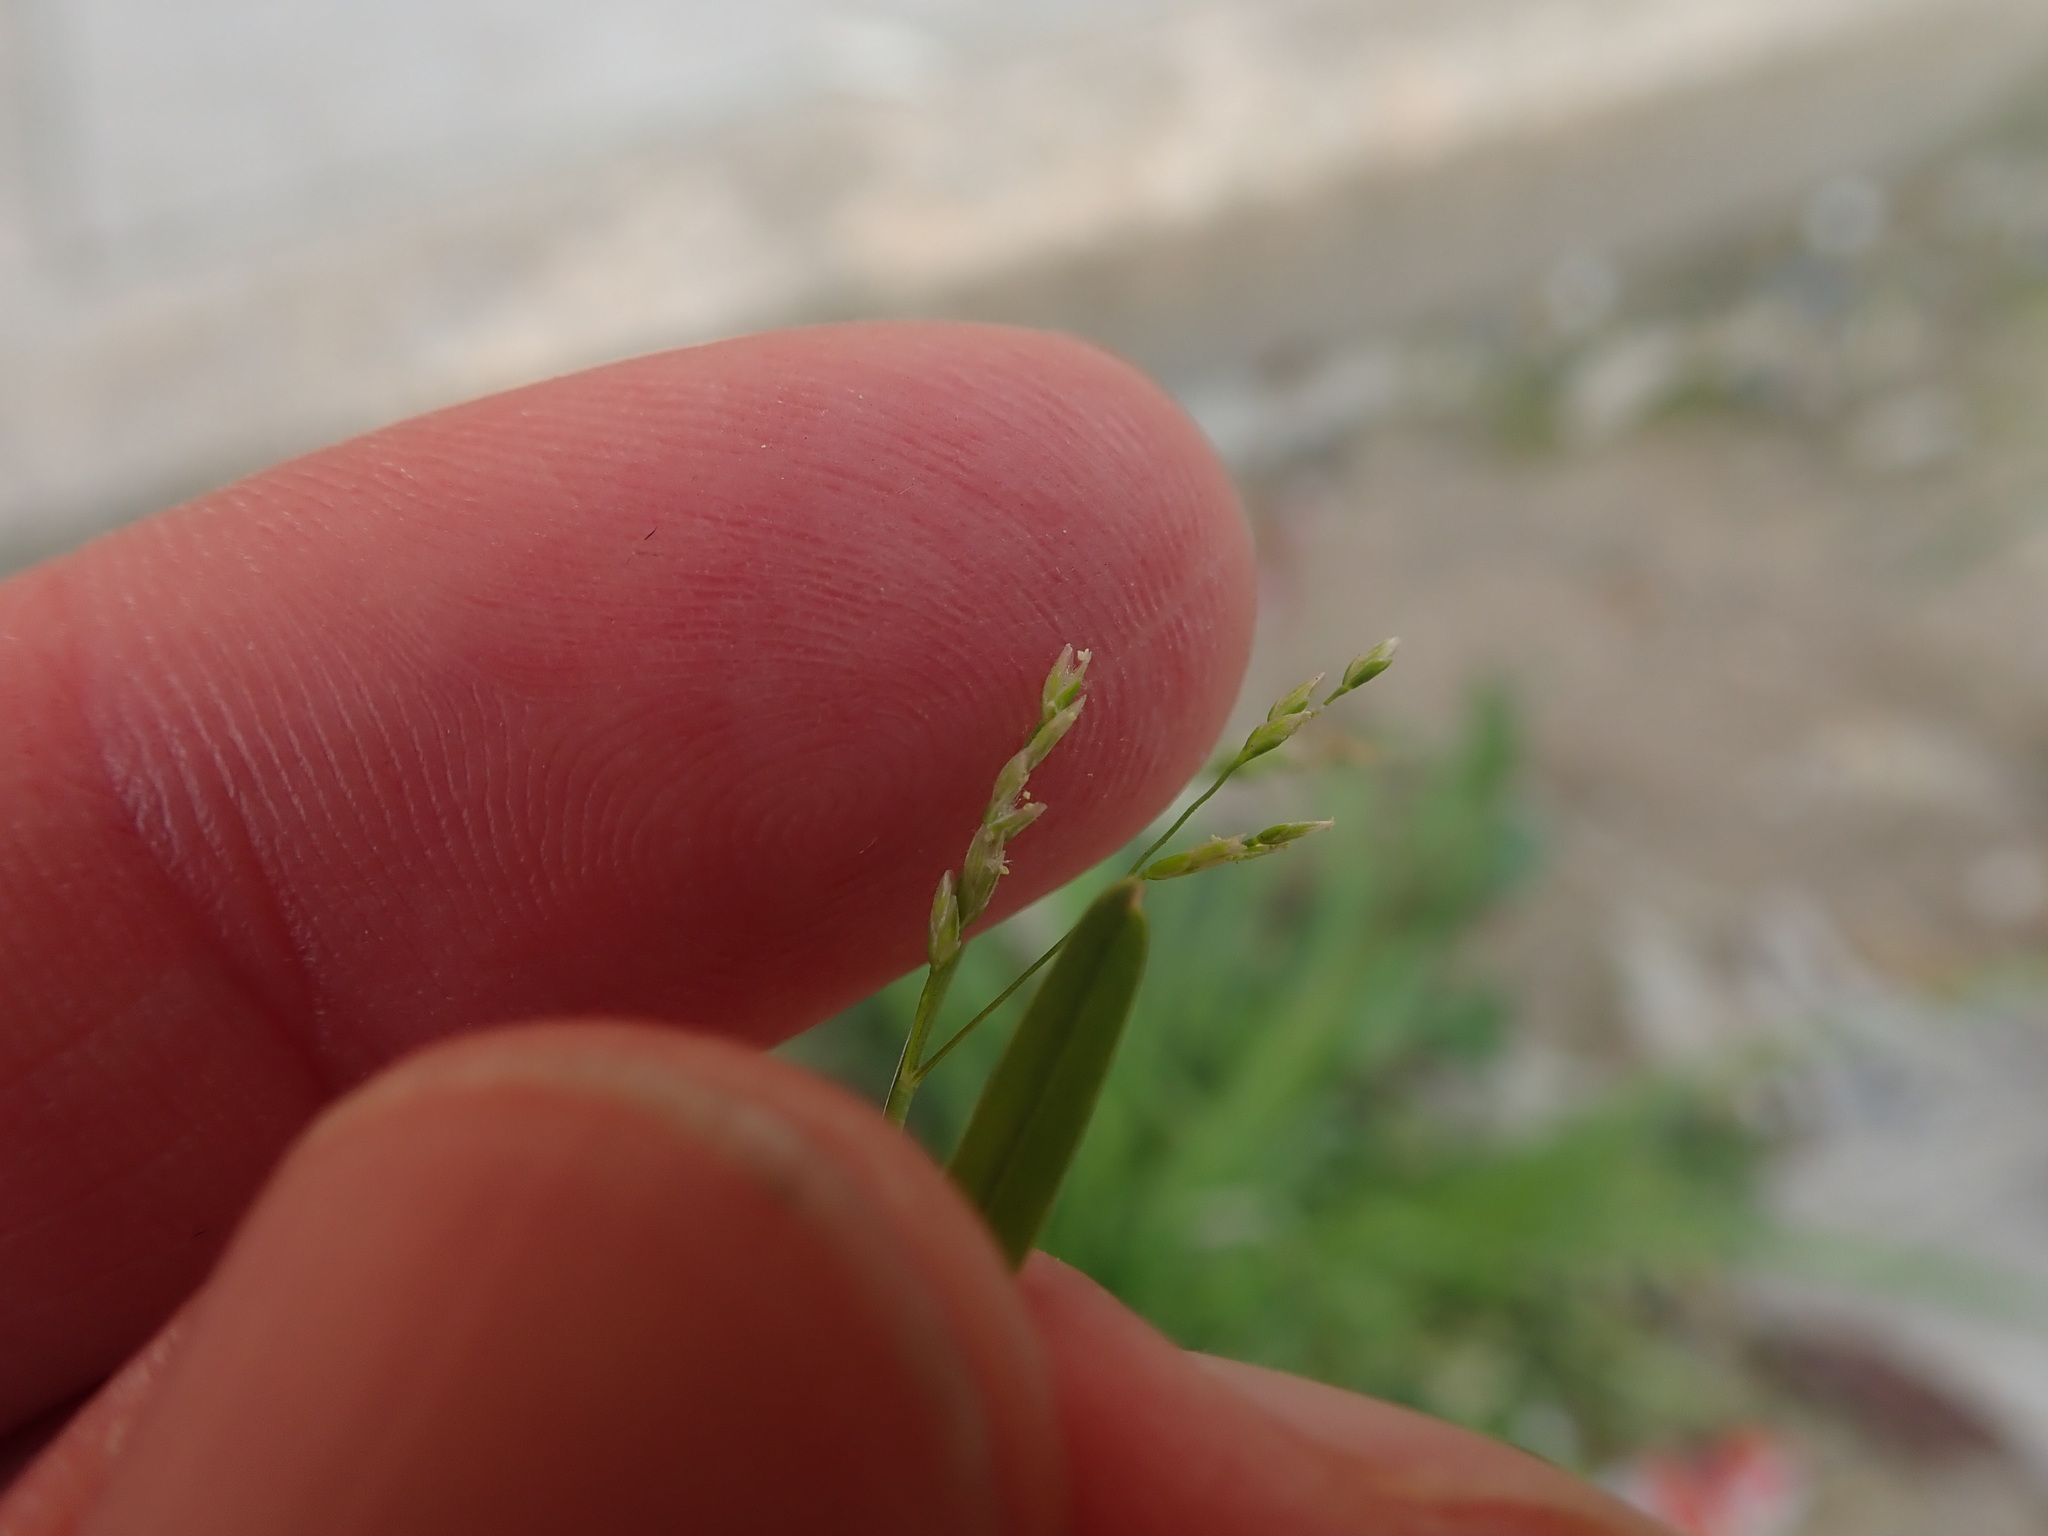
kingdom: Plantae
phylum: Tracheophyta
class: Liliopsida
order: Poales
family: Poaceae
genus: Poa
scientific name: Poa infirma
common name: Weak bluegrass
